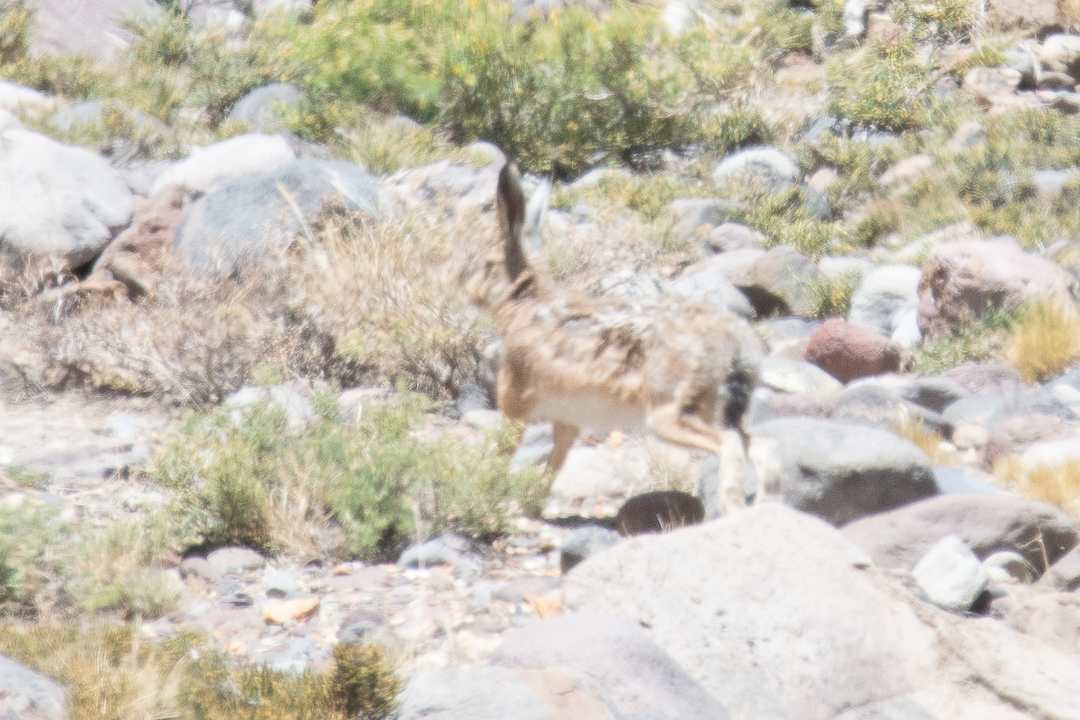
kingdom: Animalia
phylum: Chordata
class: Mammalia
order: Lagomorpha
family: Leporidae
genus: Lepus
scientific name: Lepus europaeus
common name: European hare
